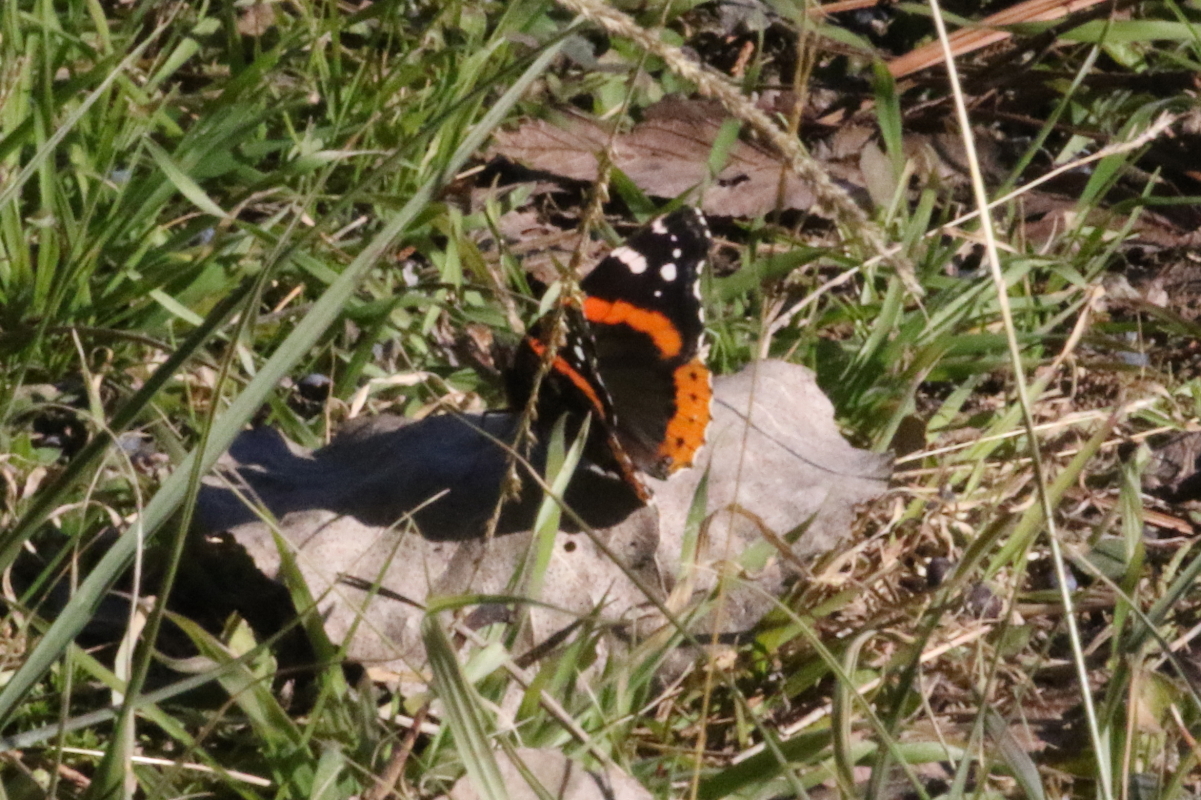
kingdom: Animalia
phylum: Arthropoda
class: Insecta
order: Lepidoptera
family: Nymphalidae
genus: Vanessa
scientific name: Vanessa atalanta
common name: Red admiral
